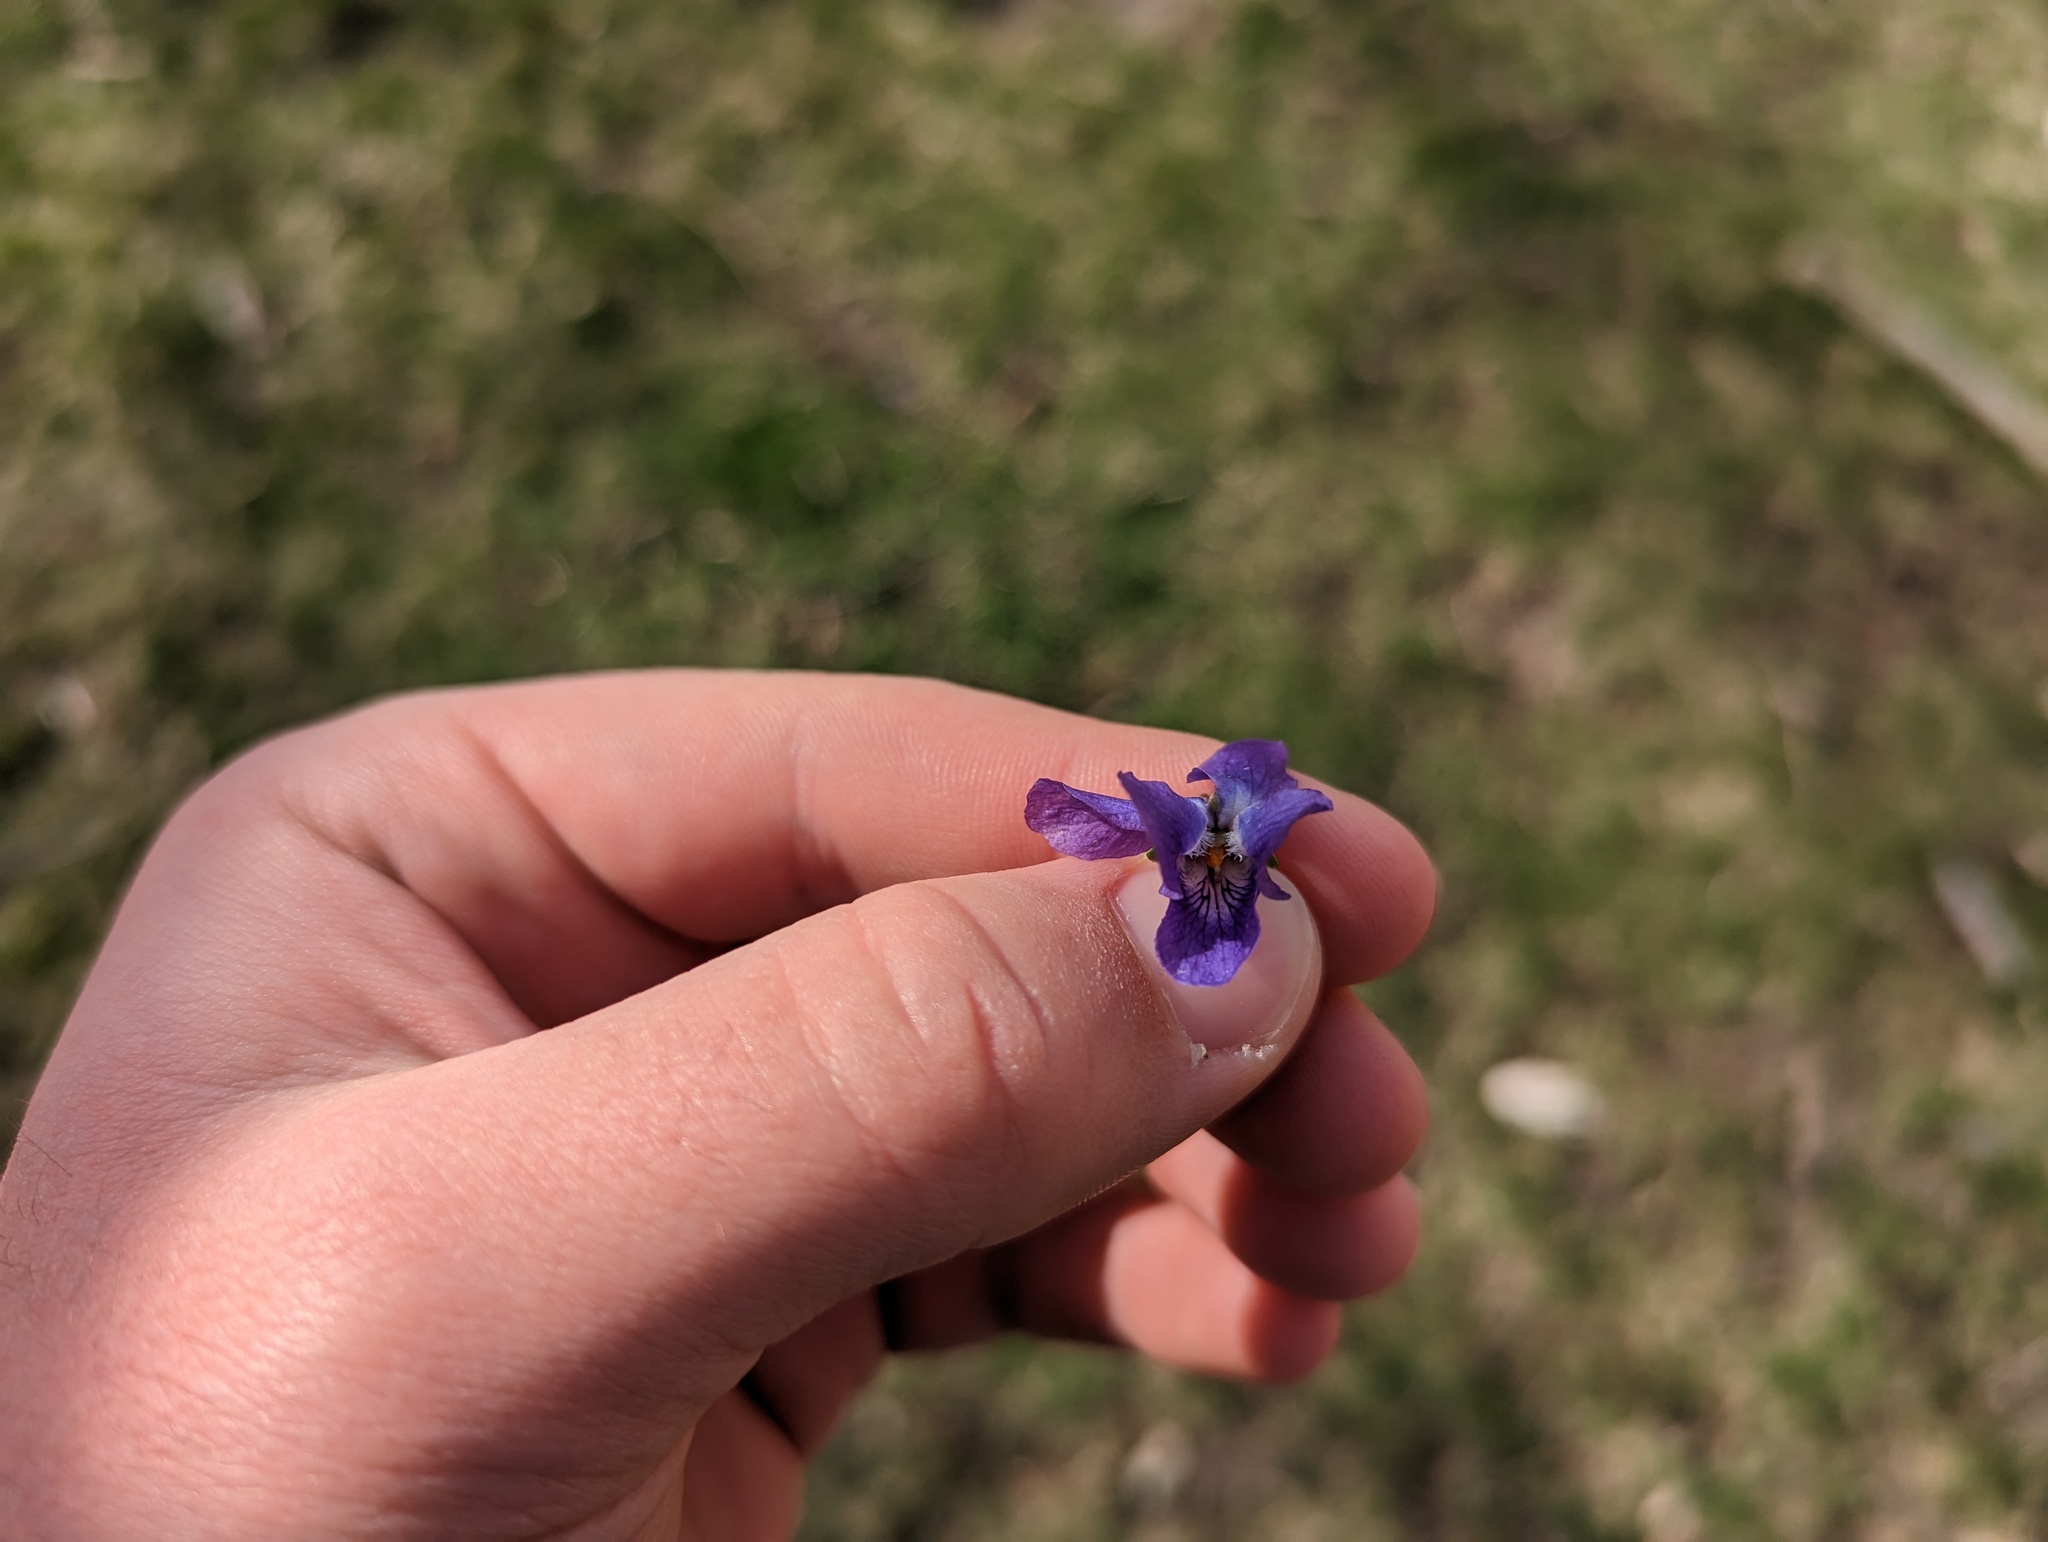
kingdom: Plantae
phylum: Tracheophyta
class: Magnoliopsida
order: Malpighiales
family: Violaceae
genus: Viola
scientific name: Viola odorata
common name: Sweet violet
